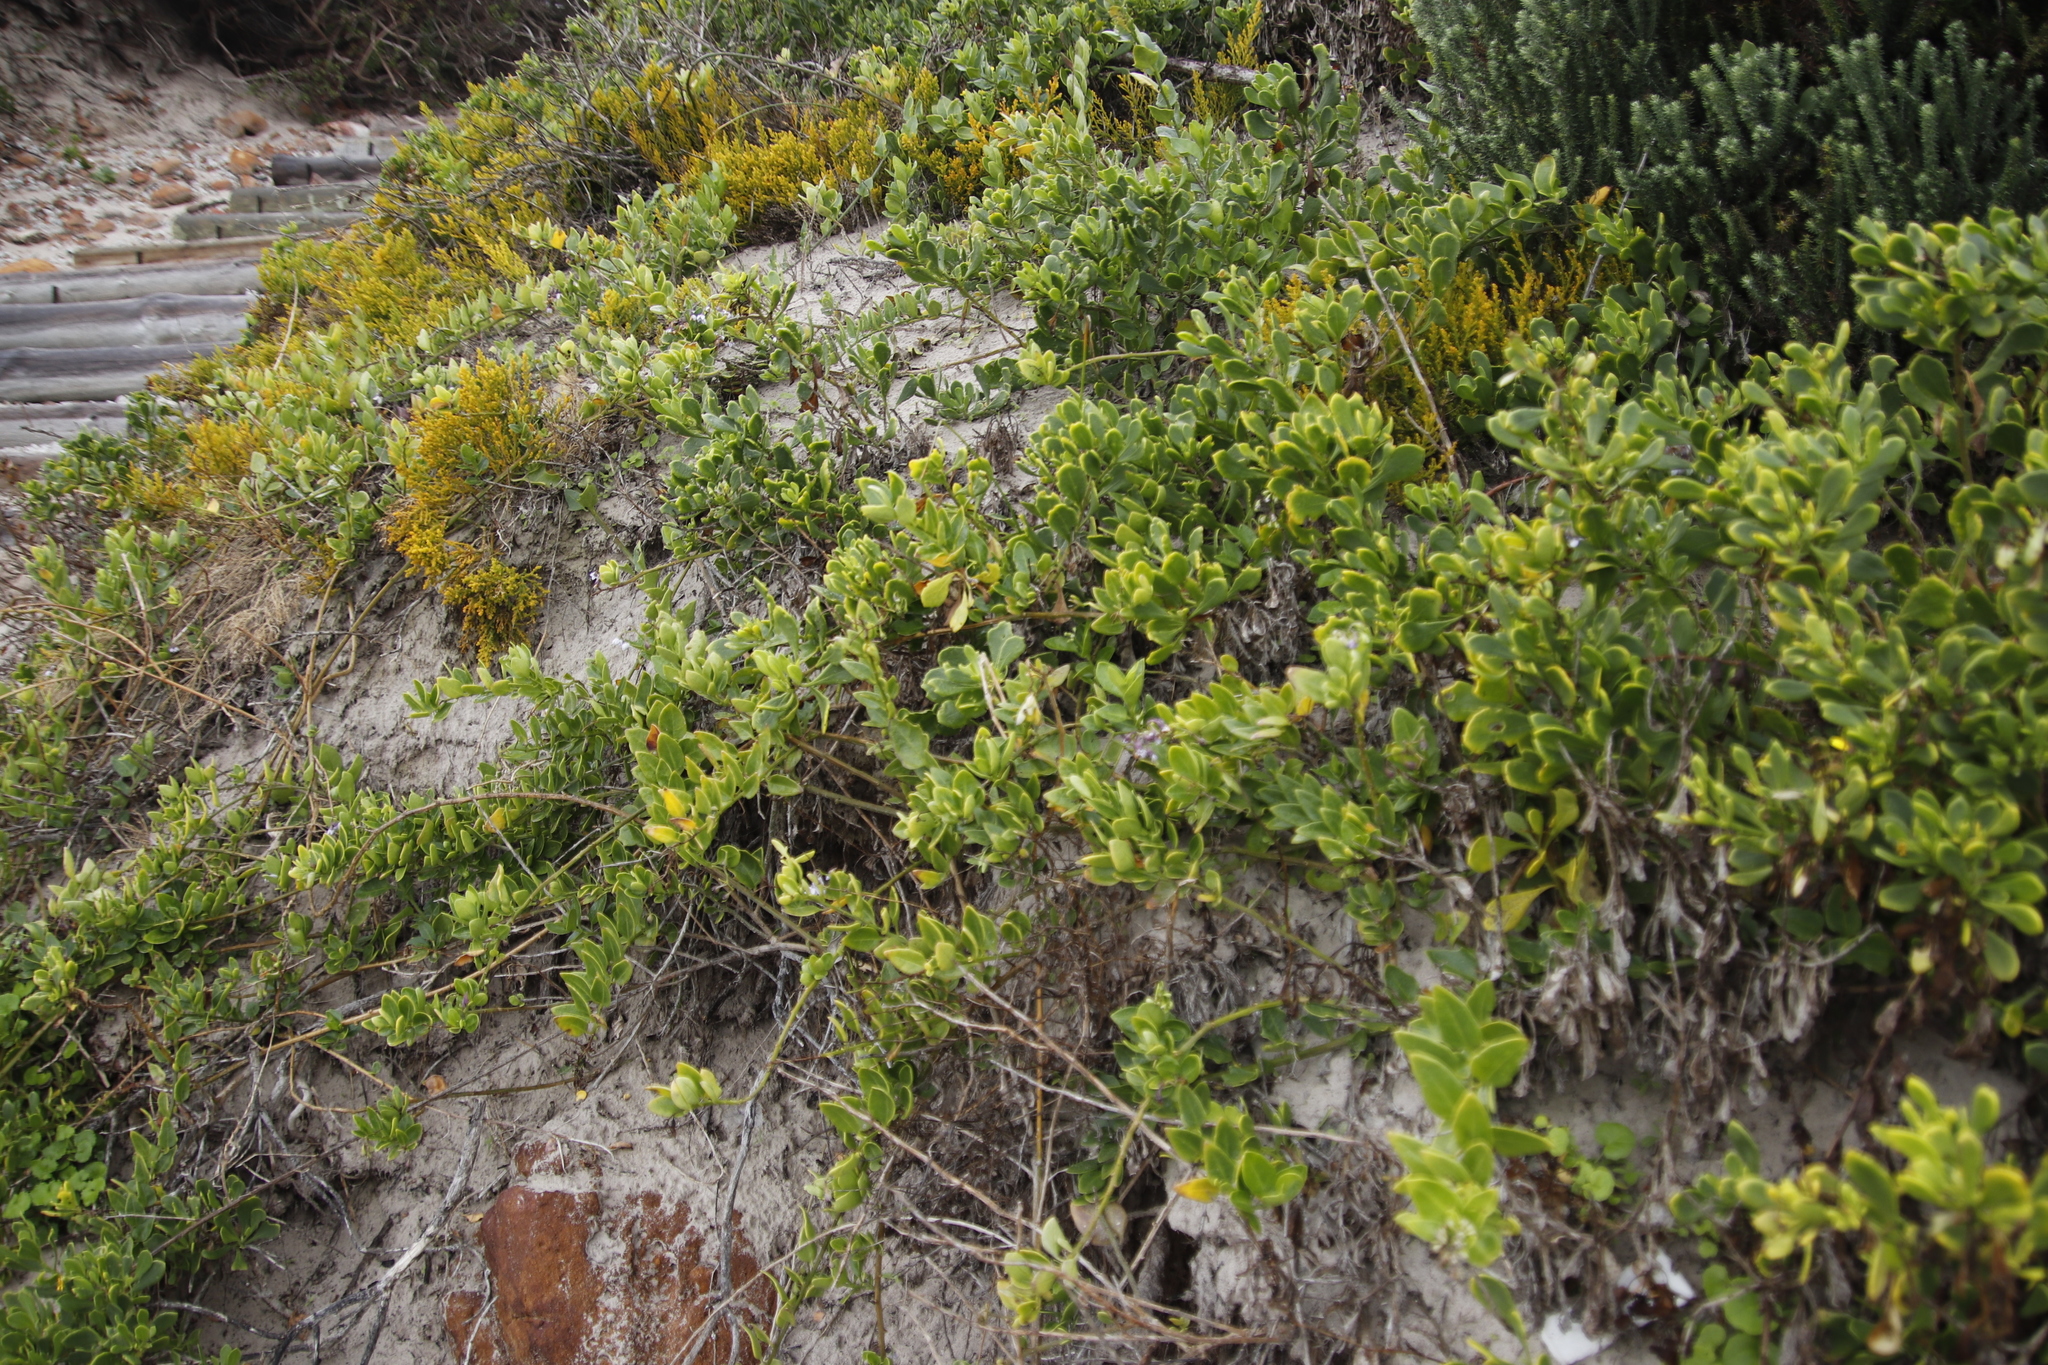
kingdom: Plantae
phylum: Tracheophyta
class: Magnoliopsida
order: Solanales
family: Solanaceae
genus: Solanum
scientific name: Solanum africanum
